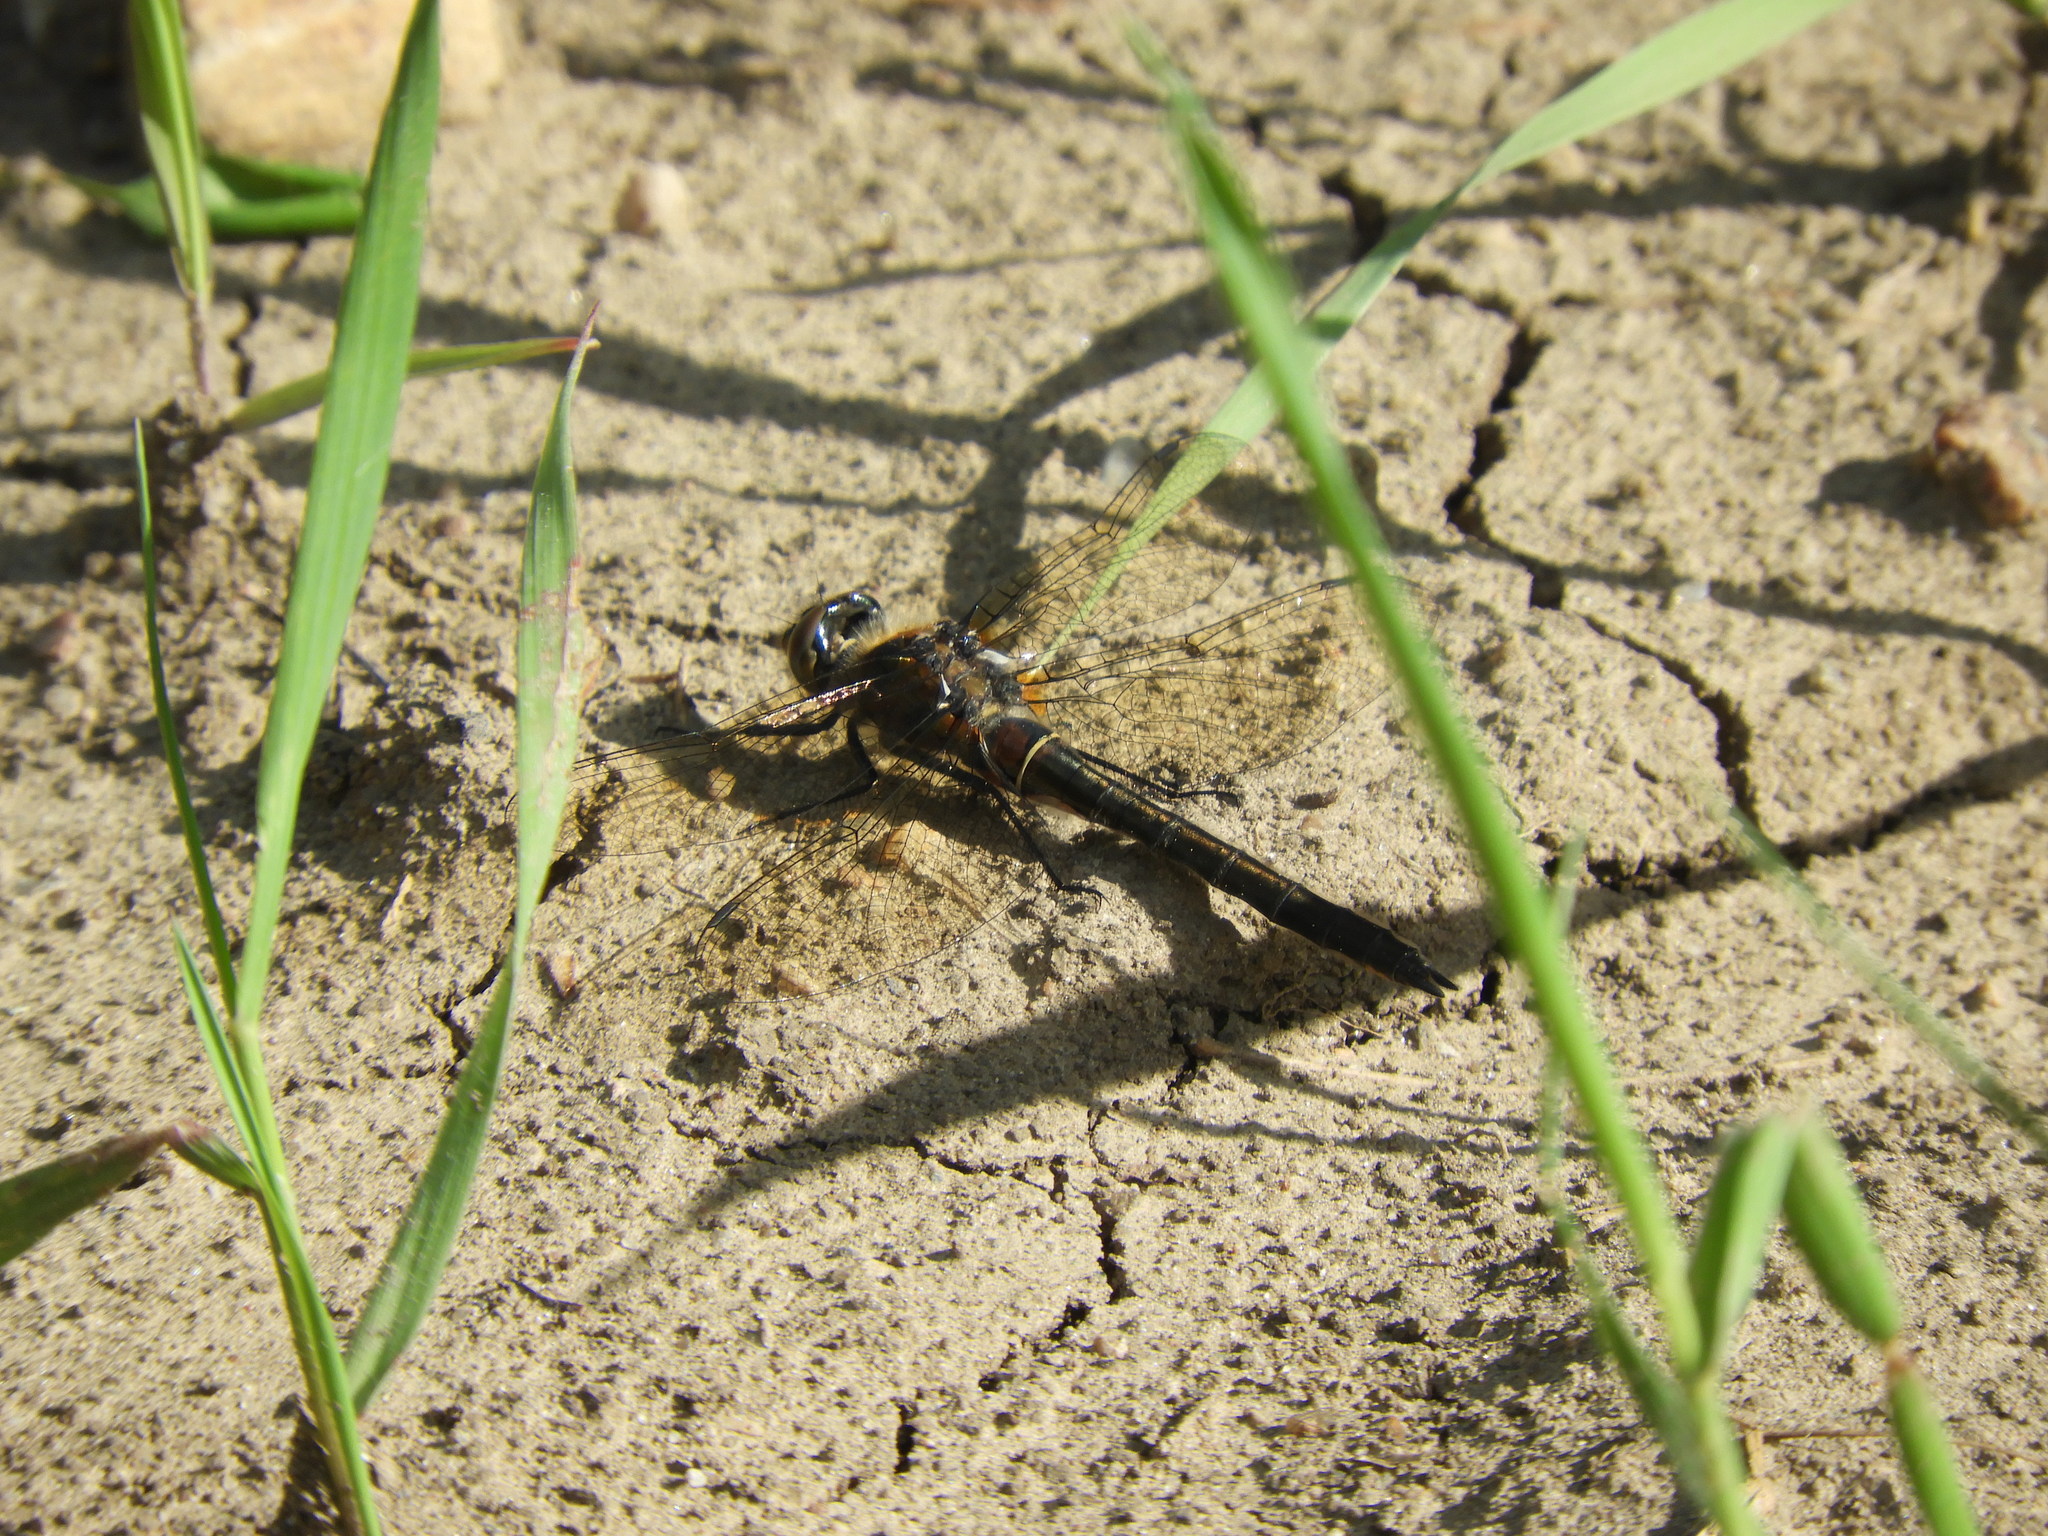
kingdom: Animalia
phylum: Arthropoda
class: Insecta
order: Odonata
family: Corduliidae
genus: Cordulia
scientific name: Cordulia shurtleffii
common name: American emerald
